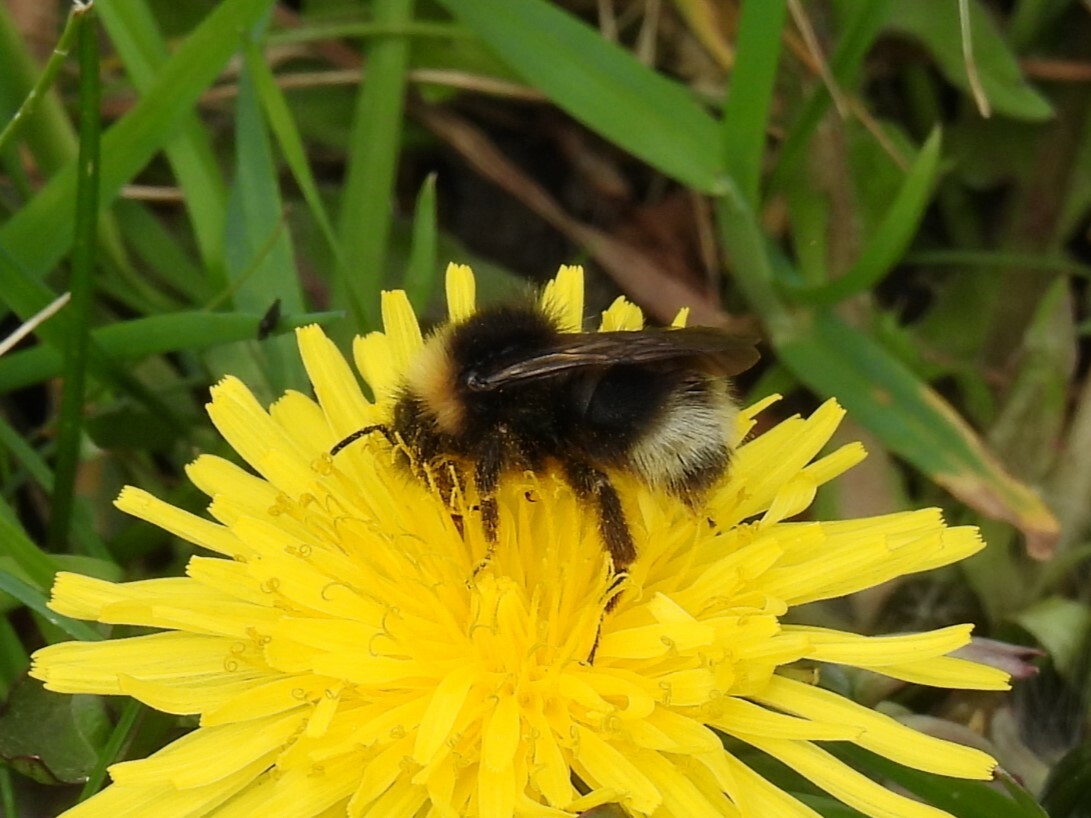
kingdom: Animalia
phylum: Arthropoda
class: Insecta
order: Hymenoptera
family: Apidae
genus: Bombus
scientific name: Bombus sylvestris
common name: Forest cuckoo bee
